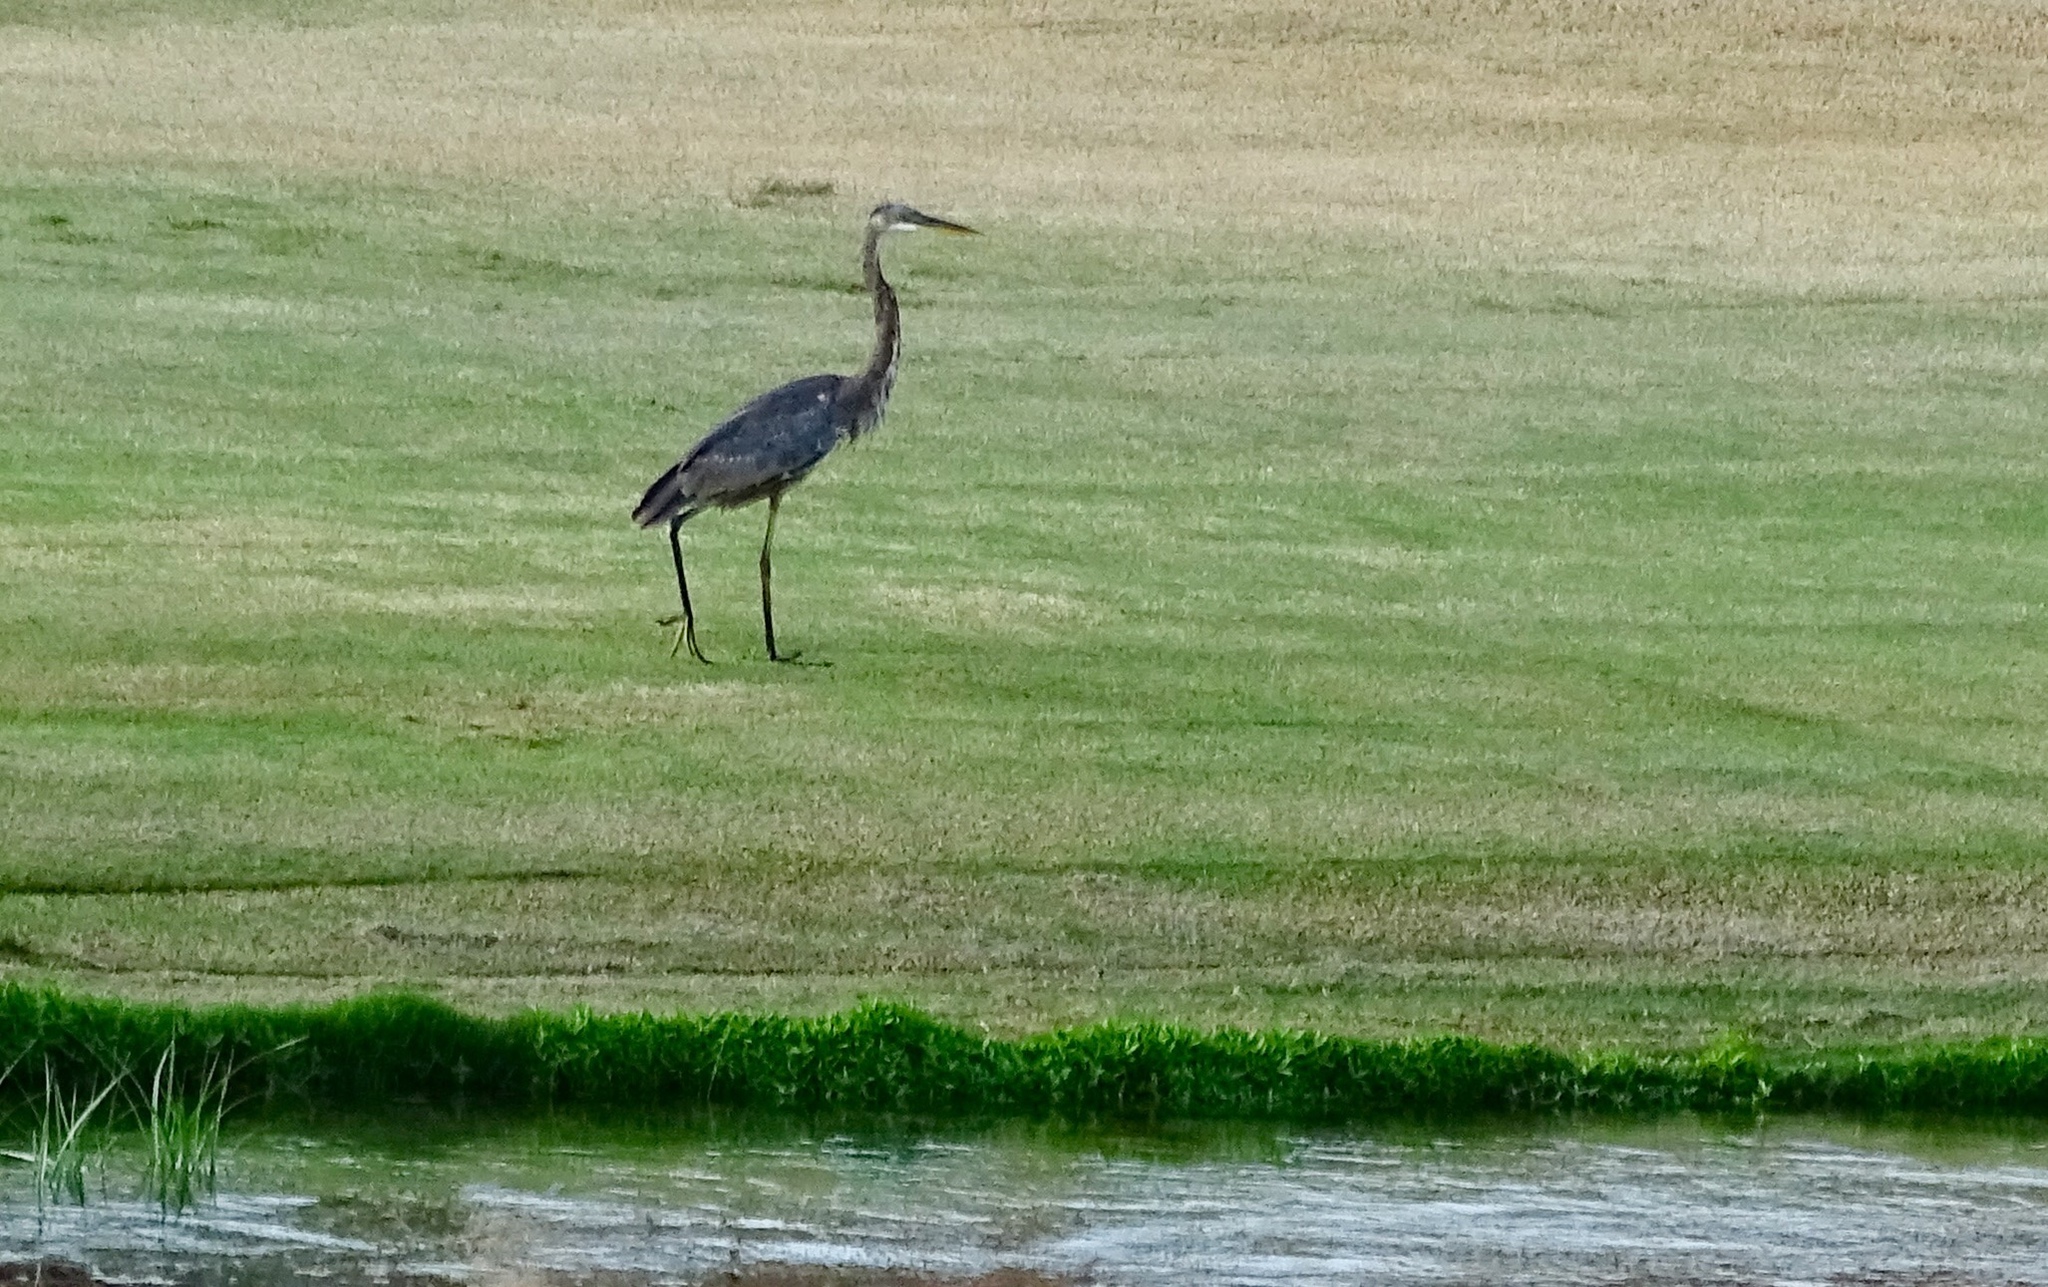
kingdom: Animalia
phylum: Chordata
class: Aves
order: Pelecaniformes
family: Ardeidae
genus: Ardea
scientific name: Ardea herodias
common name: Great blue heron
